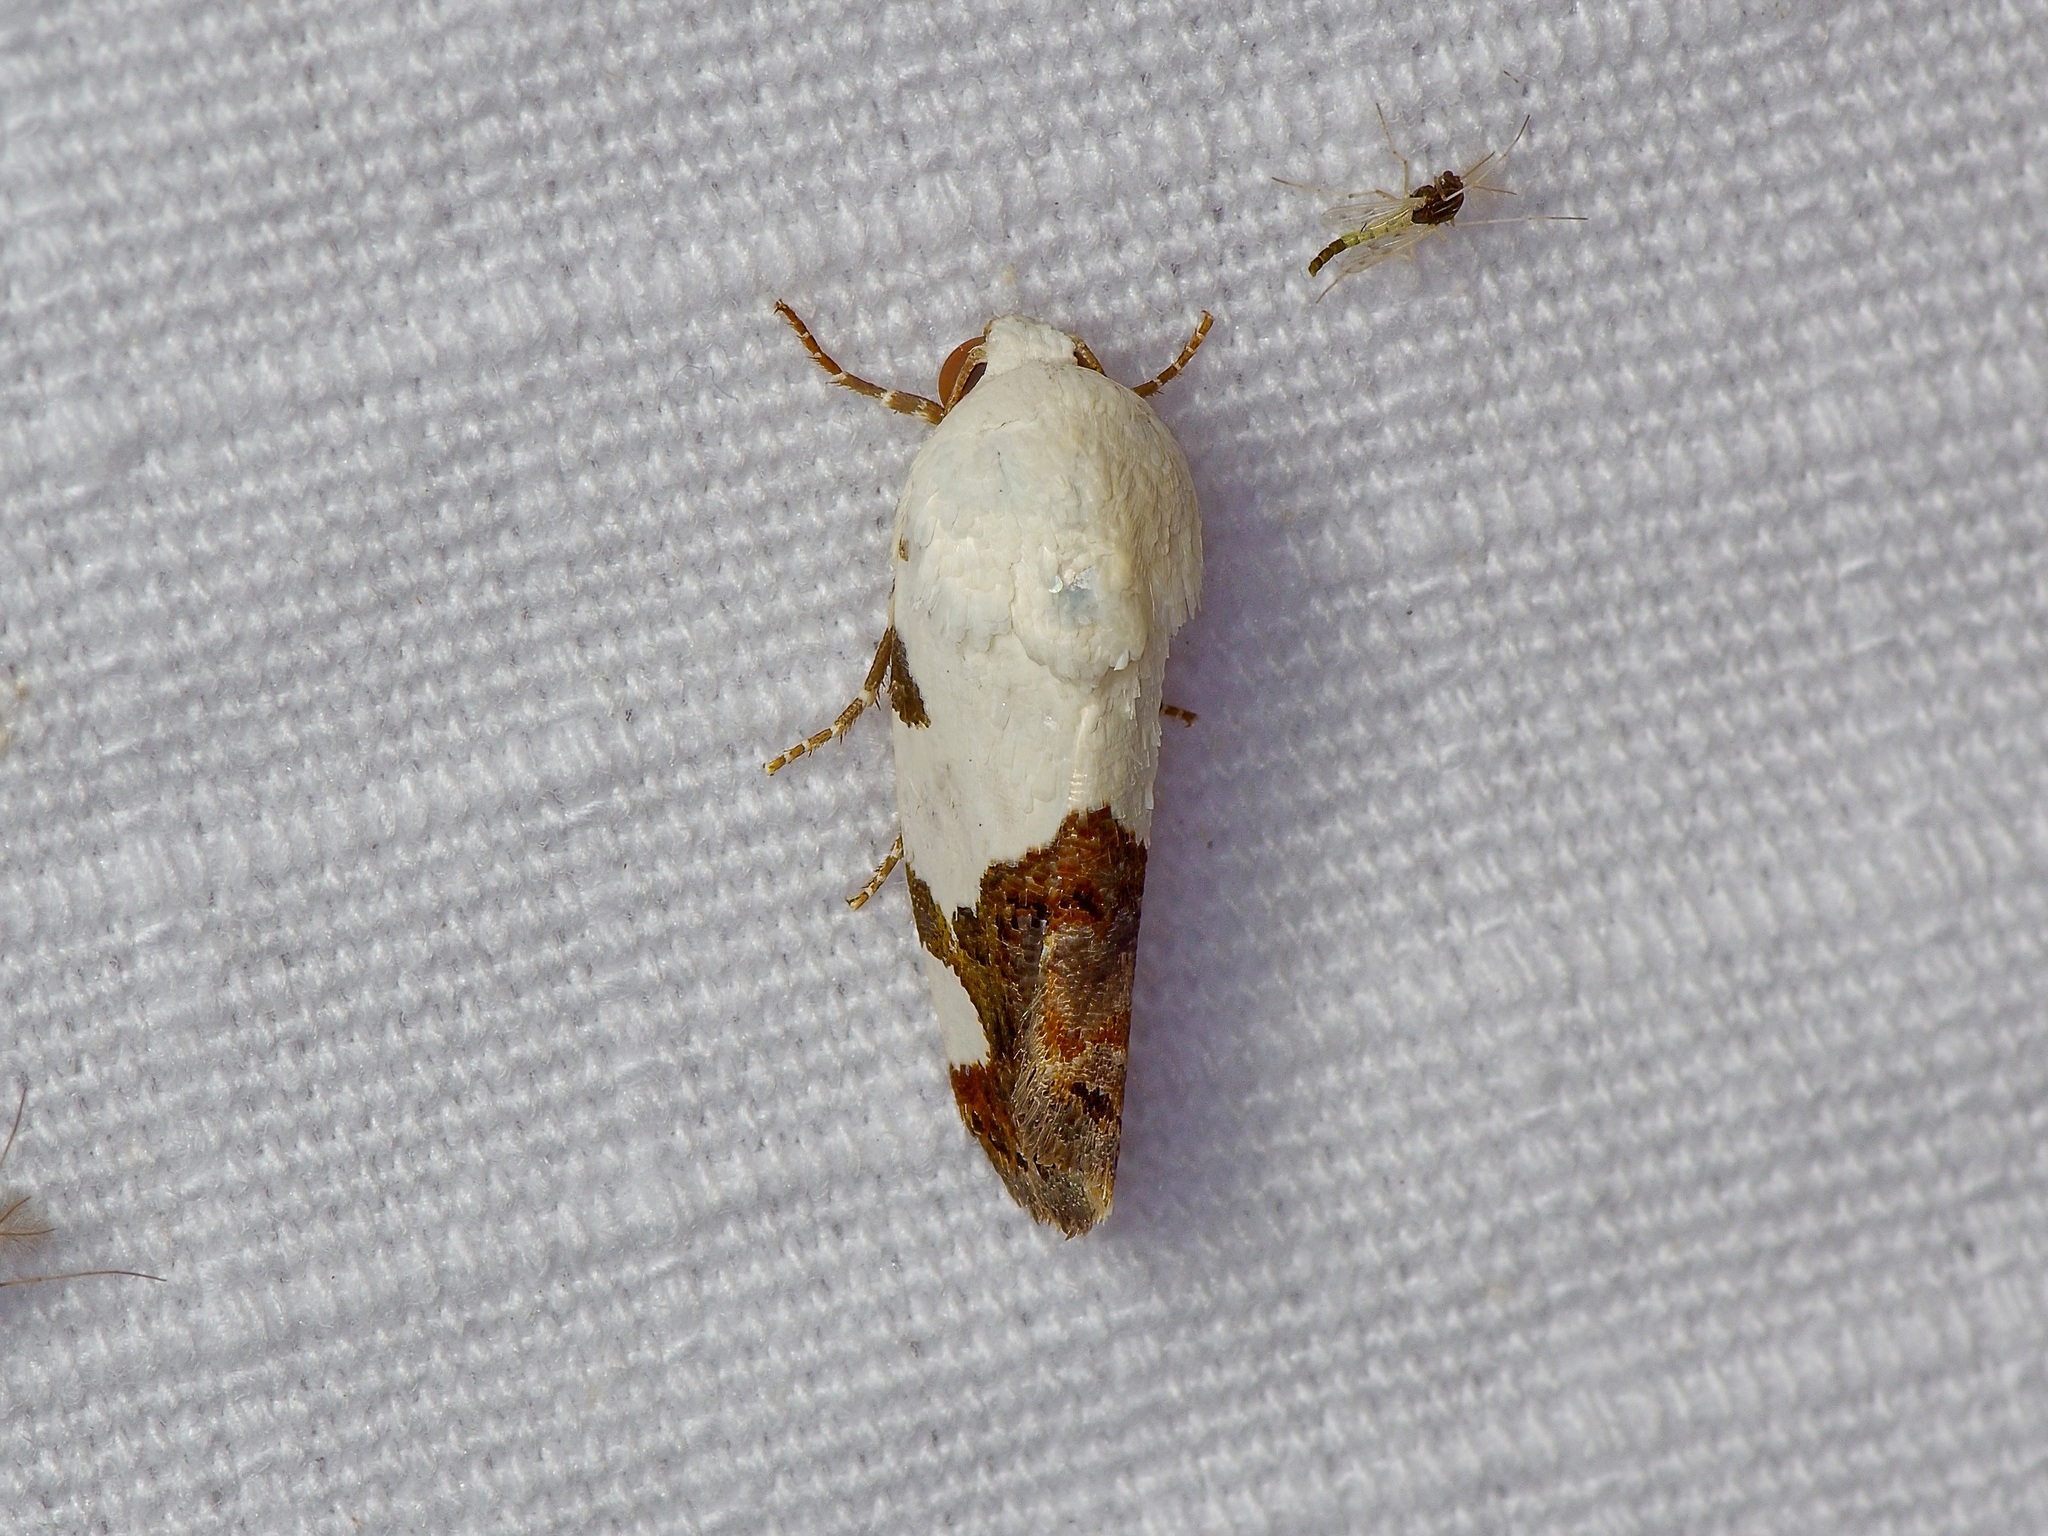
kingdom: Animalia
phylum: Arthropoda
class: Insecta
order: Lepidoptera
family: Noctuidae
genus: Acontia
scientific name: Acontia quadriplaga
